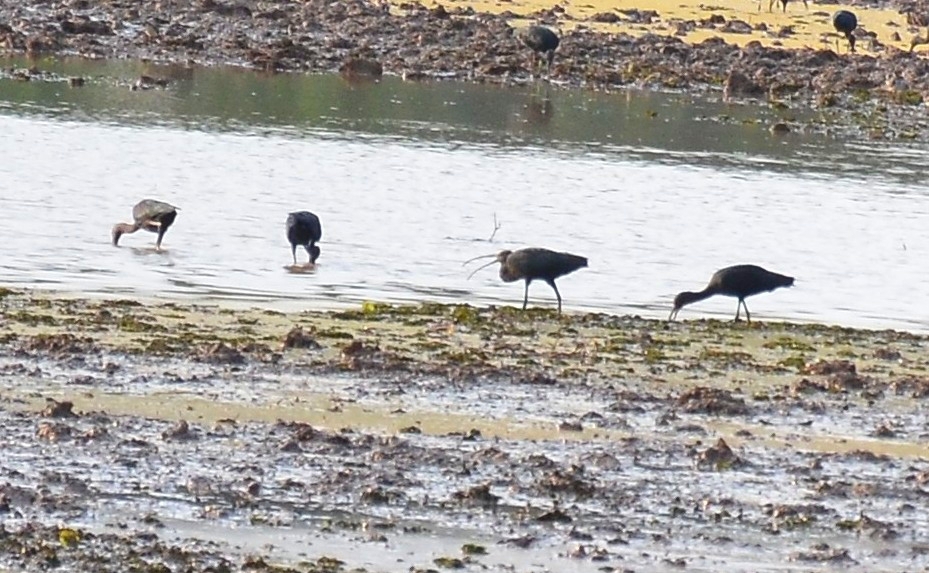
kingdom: Animalia
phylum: Chordata
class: Aves
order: Pelecaniformes
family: Threskiornithidae
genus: Plegadis
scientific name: Plegadis falcinellus
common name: Glossy ibis
